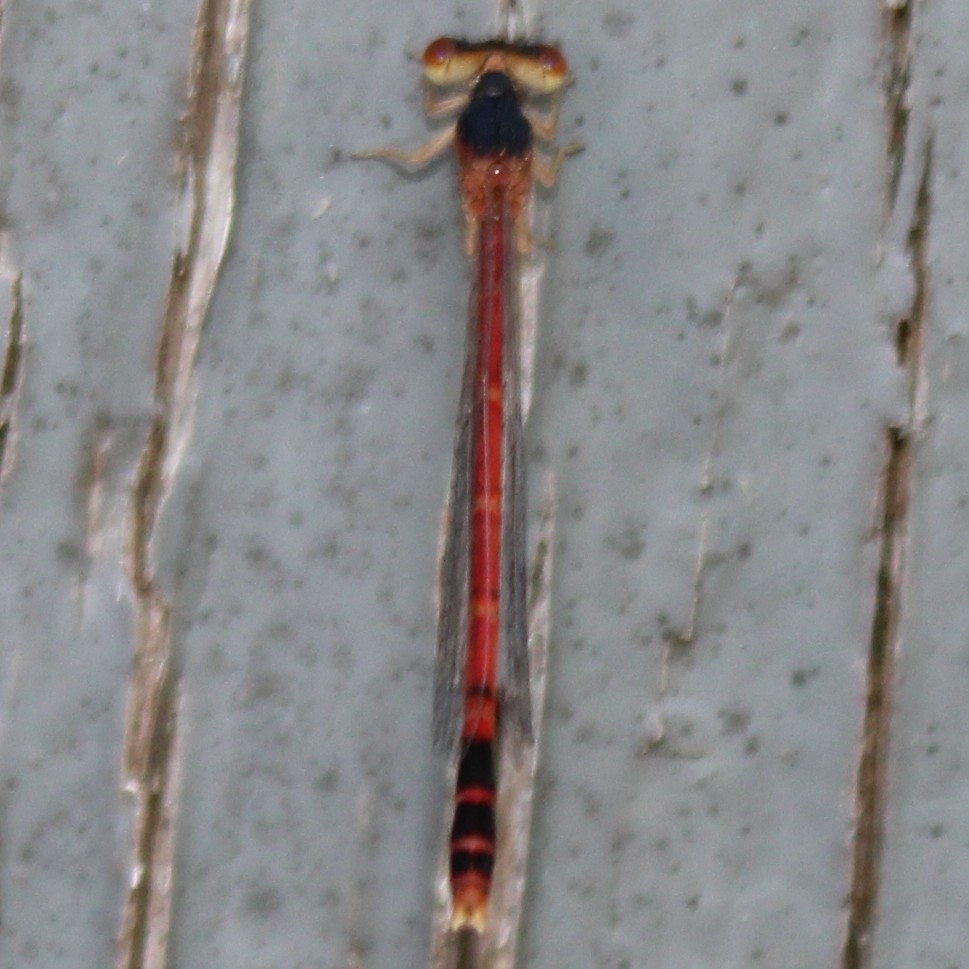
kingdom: Animalia
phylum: Arthropoda
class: Insecta
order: Odonata
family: Coenagrionidae
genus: Amphiagrion
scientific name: Amphiagrion saucium
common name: Eastern red damsel
